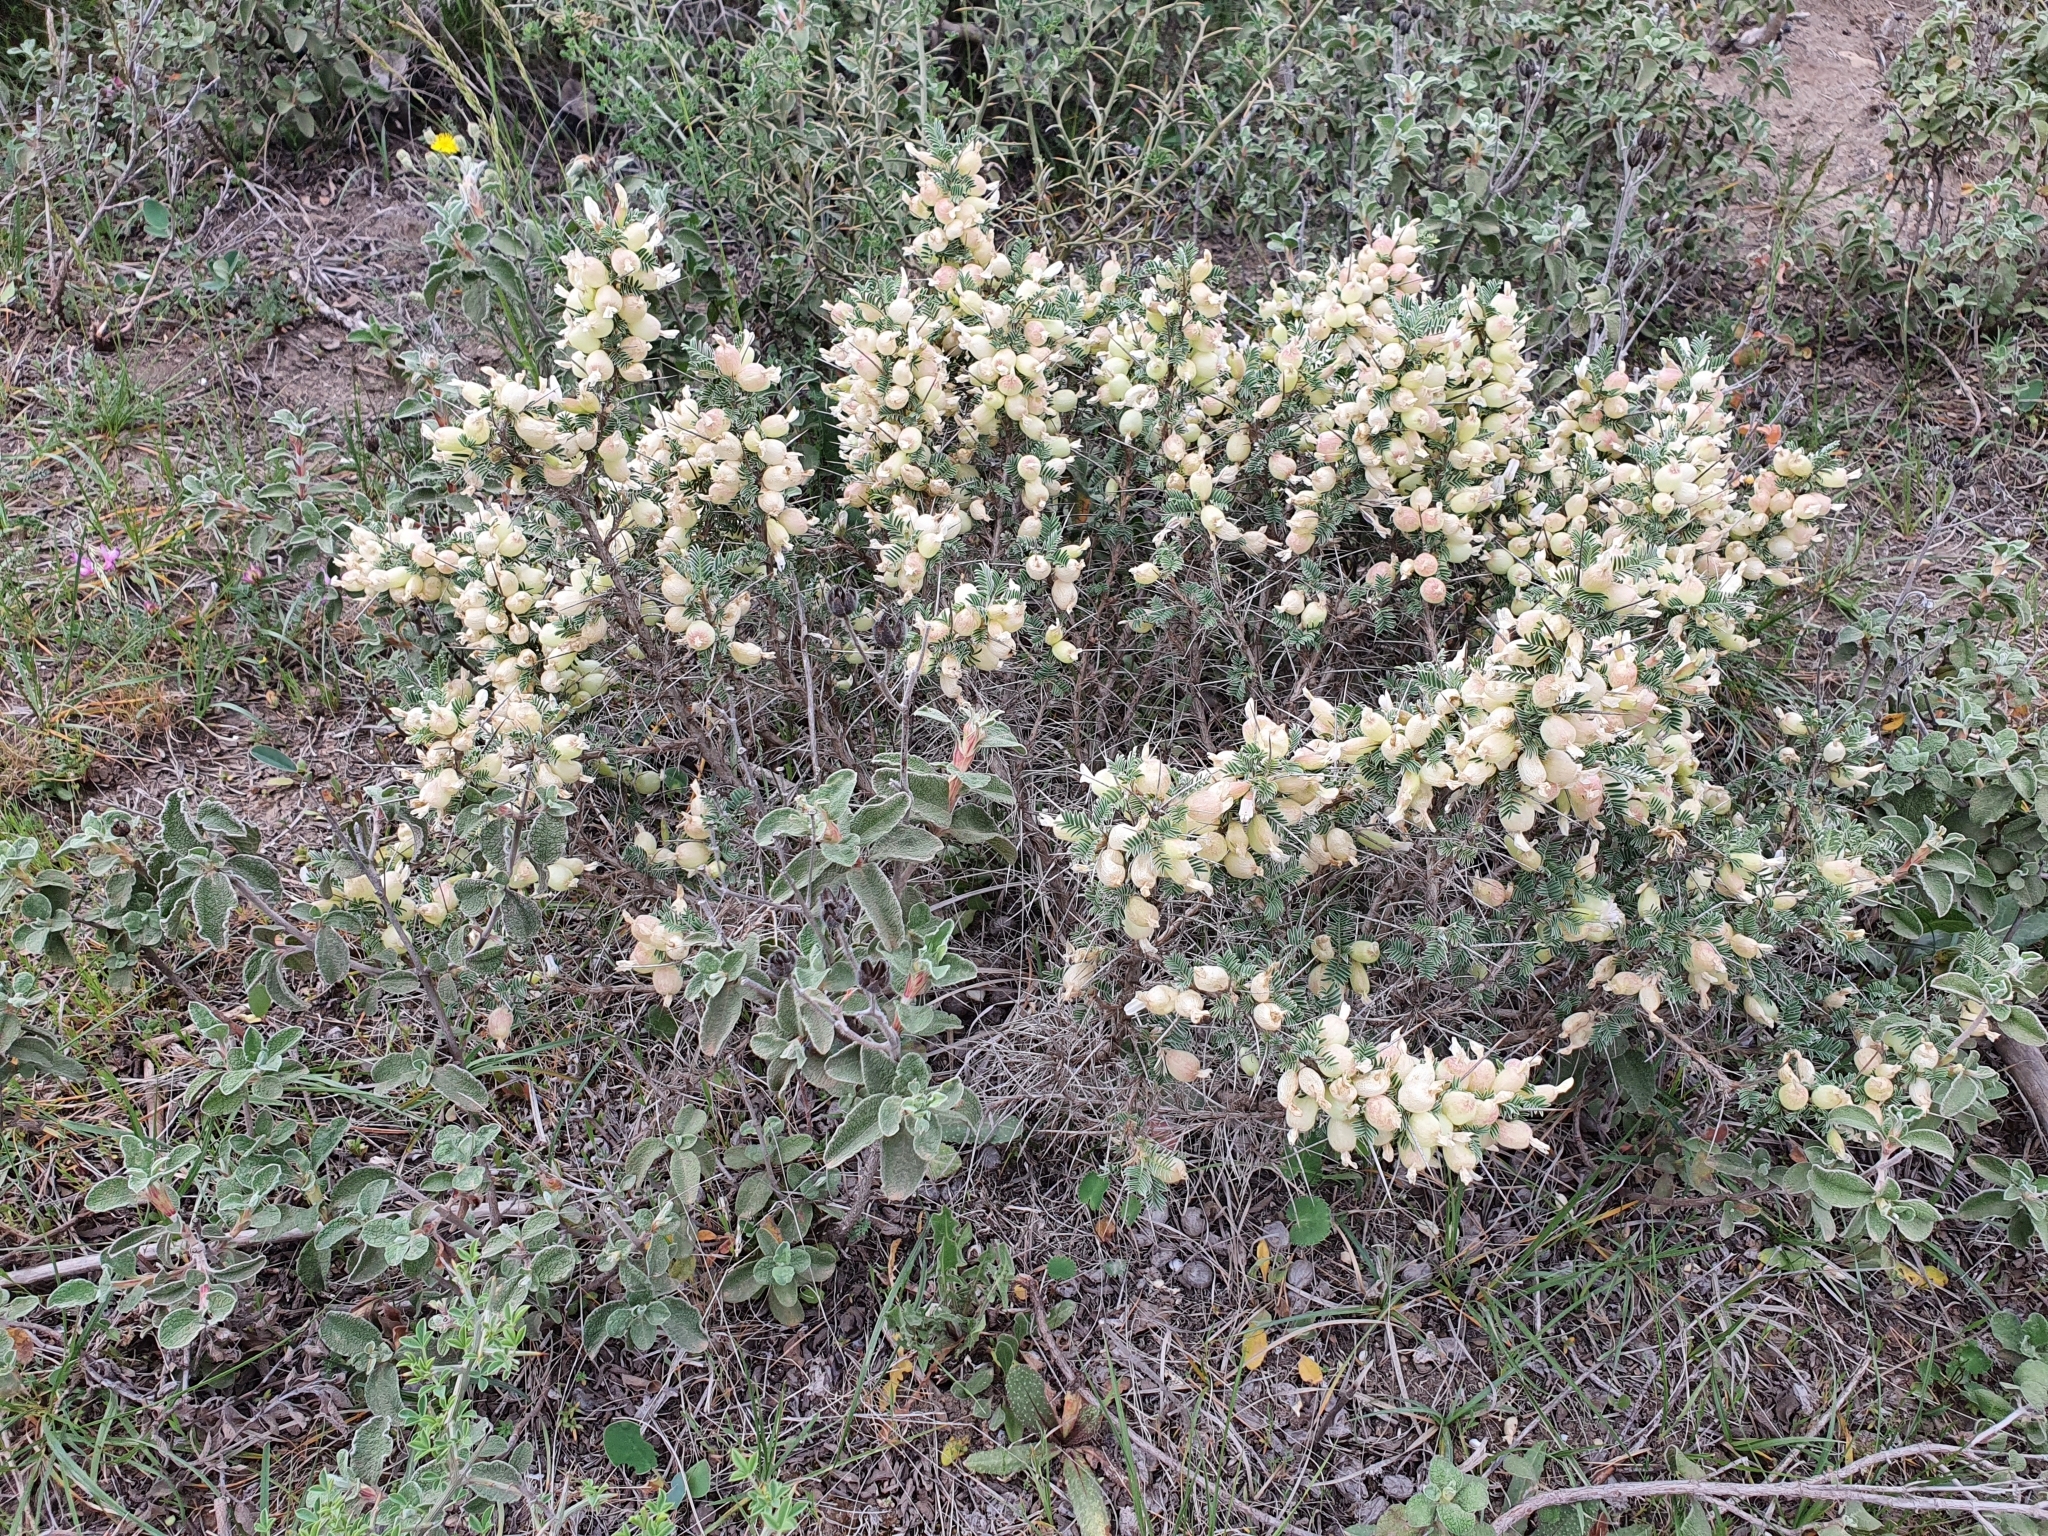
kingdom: Plantae
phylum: Tracheophyta
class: Magnoliopsida
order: Fabales
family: Fabaceae
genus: Astragalus
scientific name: Astragalus armatus
